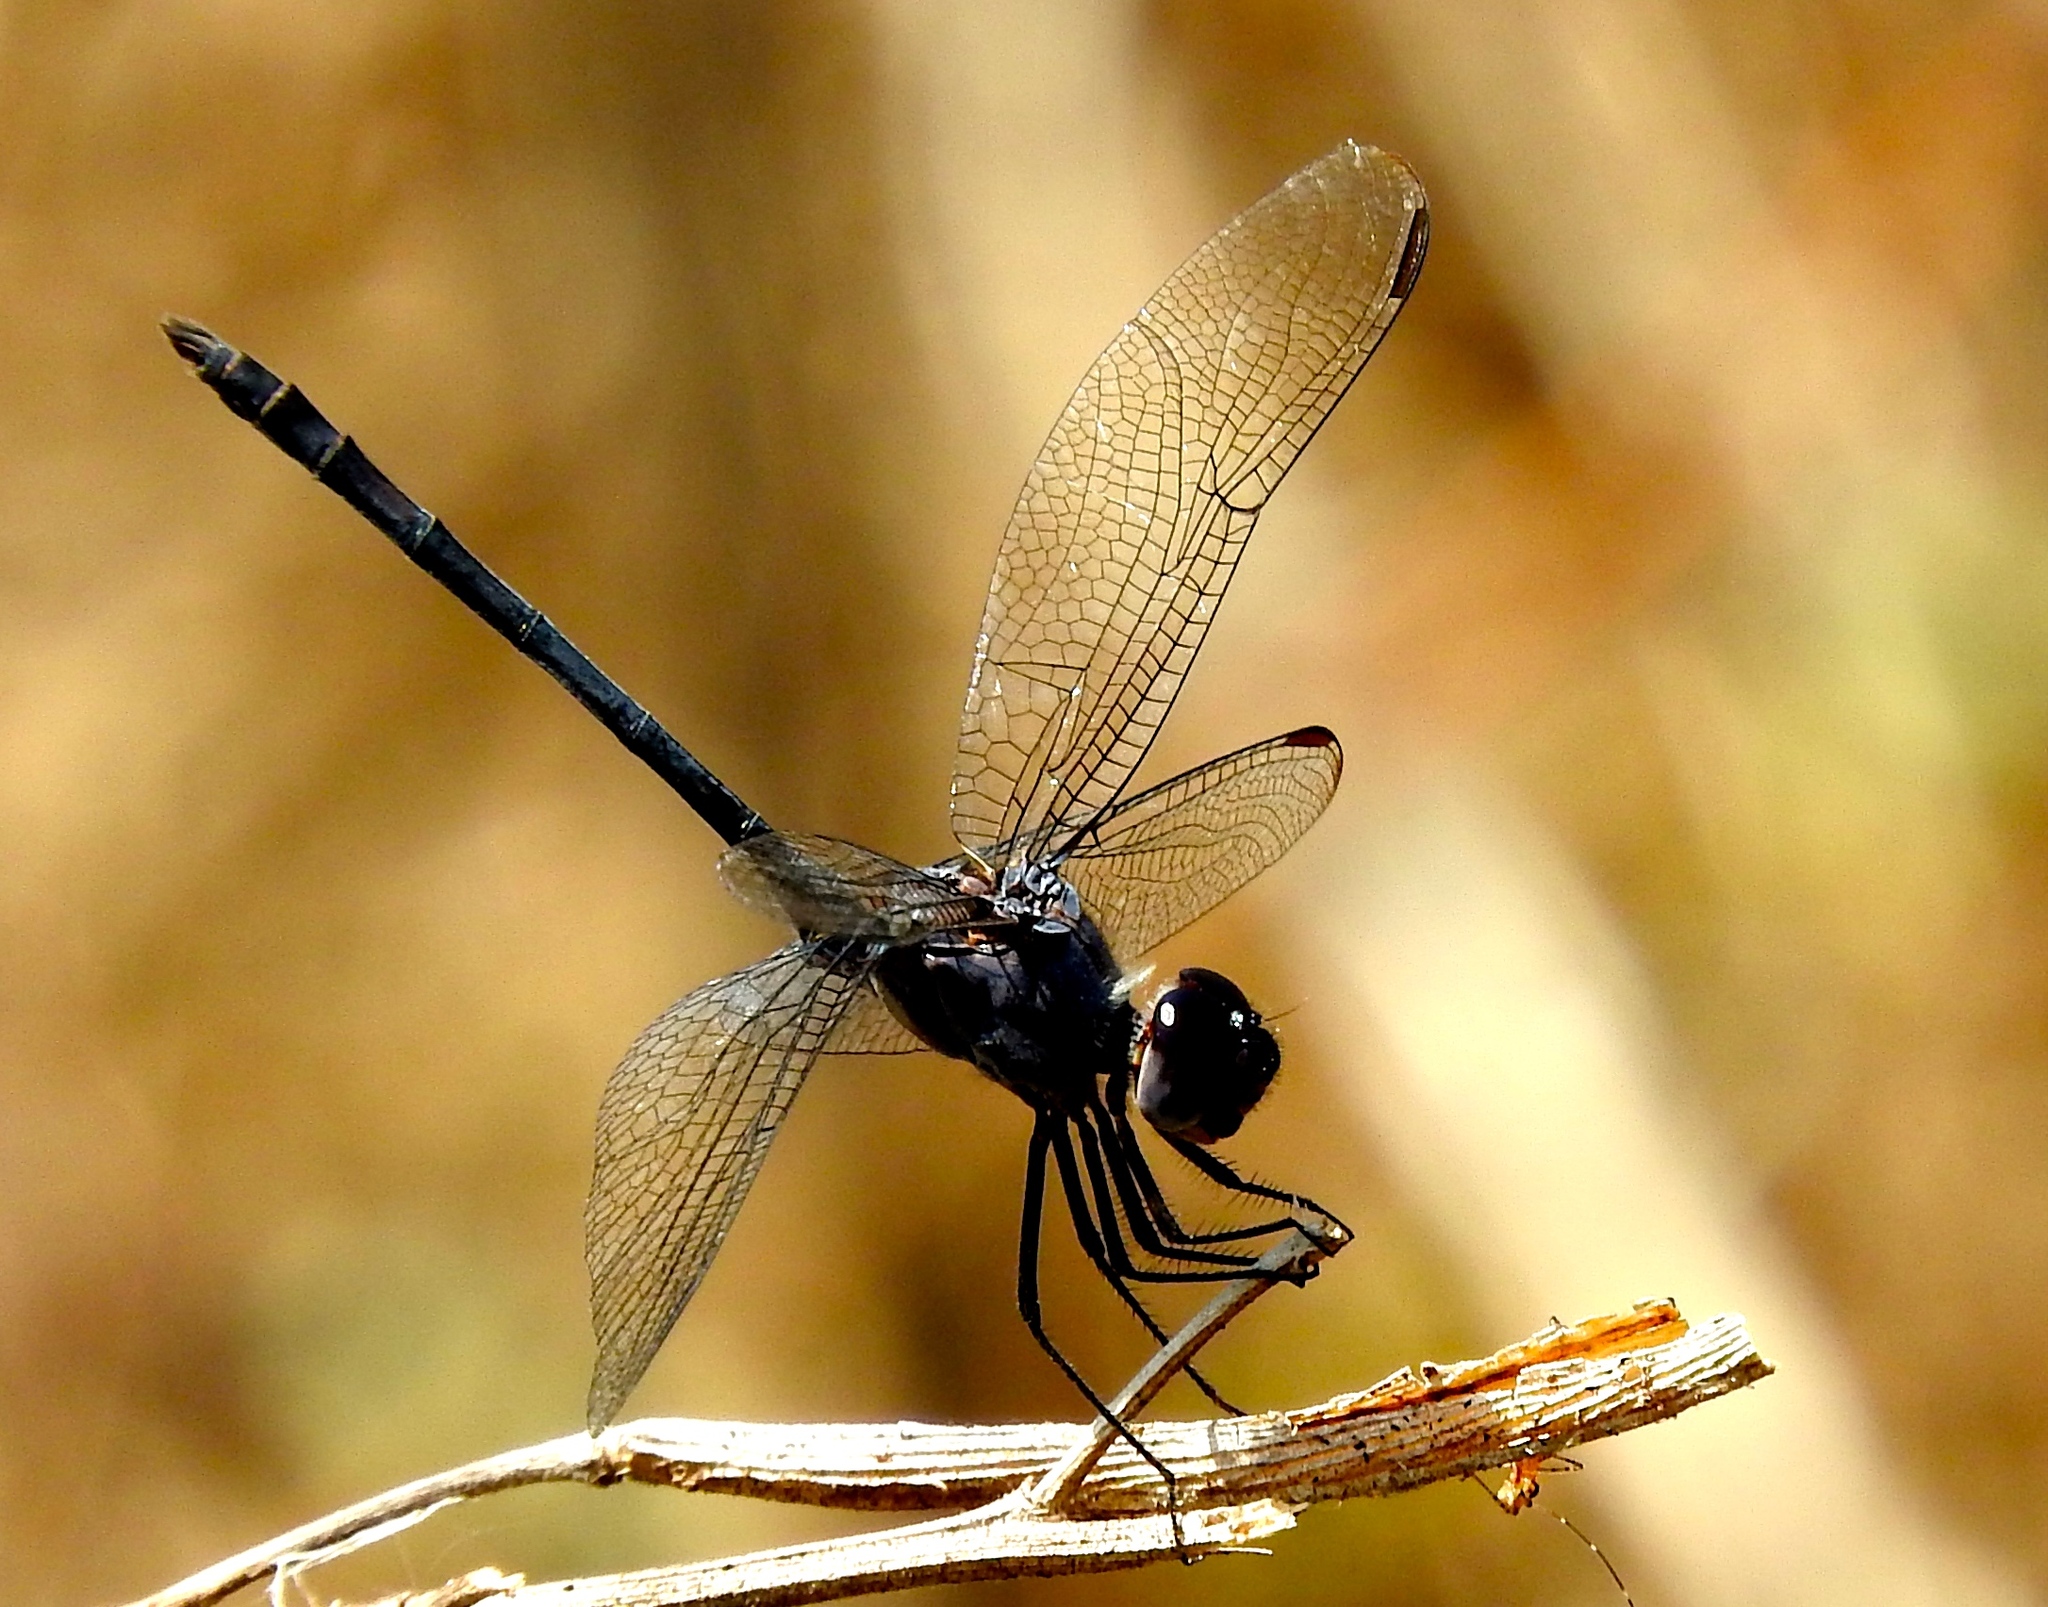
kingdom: Animalia
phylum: Arthropoda
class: Insecta
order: Odonata
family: Libellulidae
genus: Dythemis
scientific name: Dythemis nigrescens
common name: Black setwing
